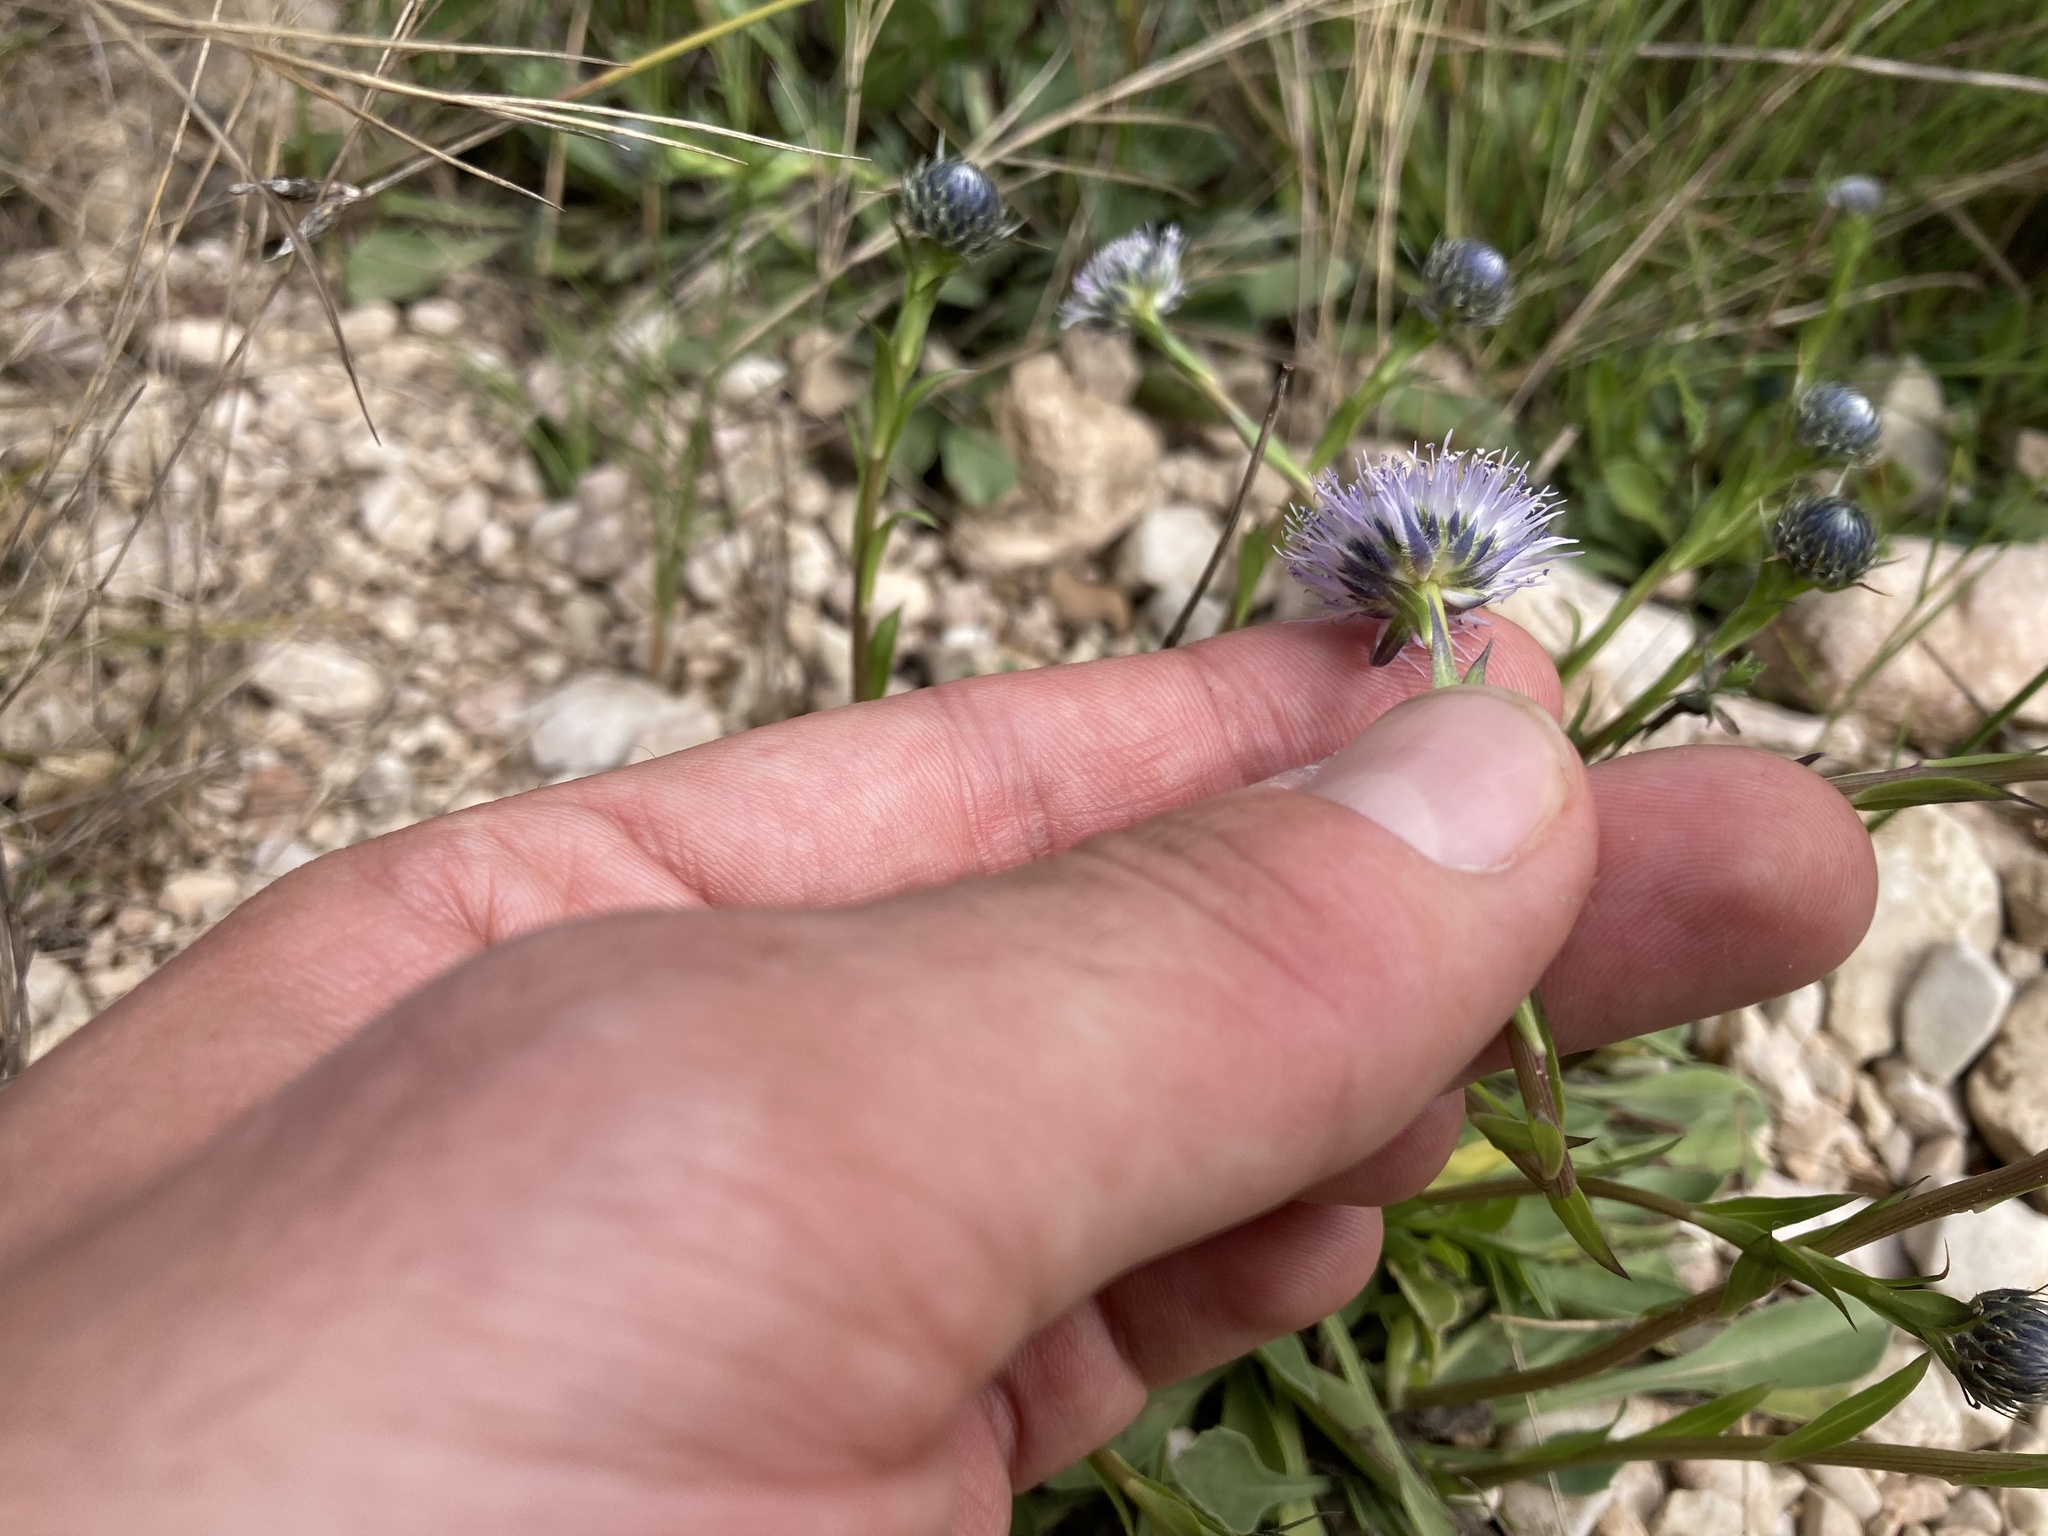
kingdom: Plantae
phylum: Tracheophyta
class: Magnoliopsida
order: Lamiales
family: Plantaginaceae
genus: Globularia
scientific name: Globularia vulgaris
